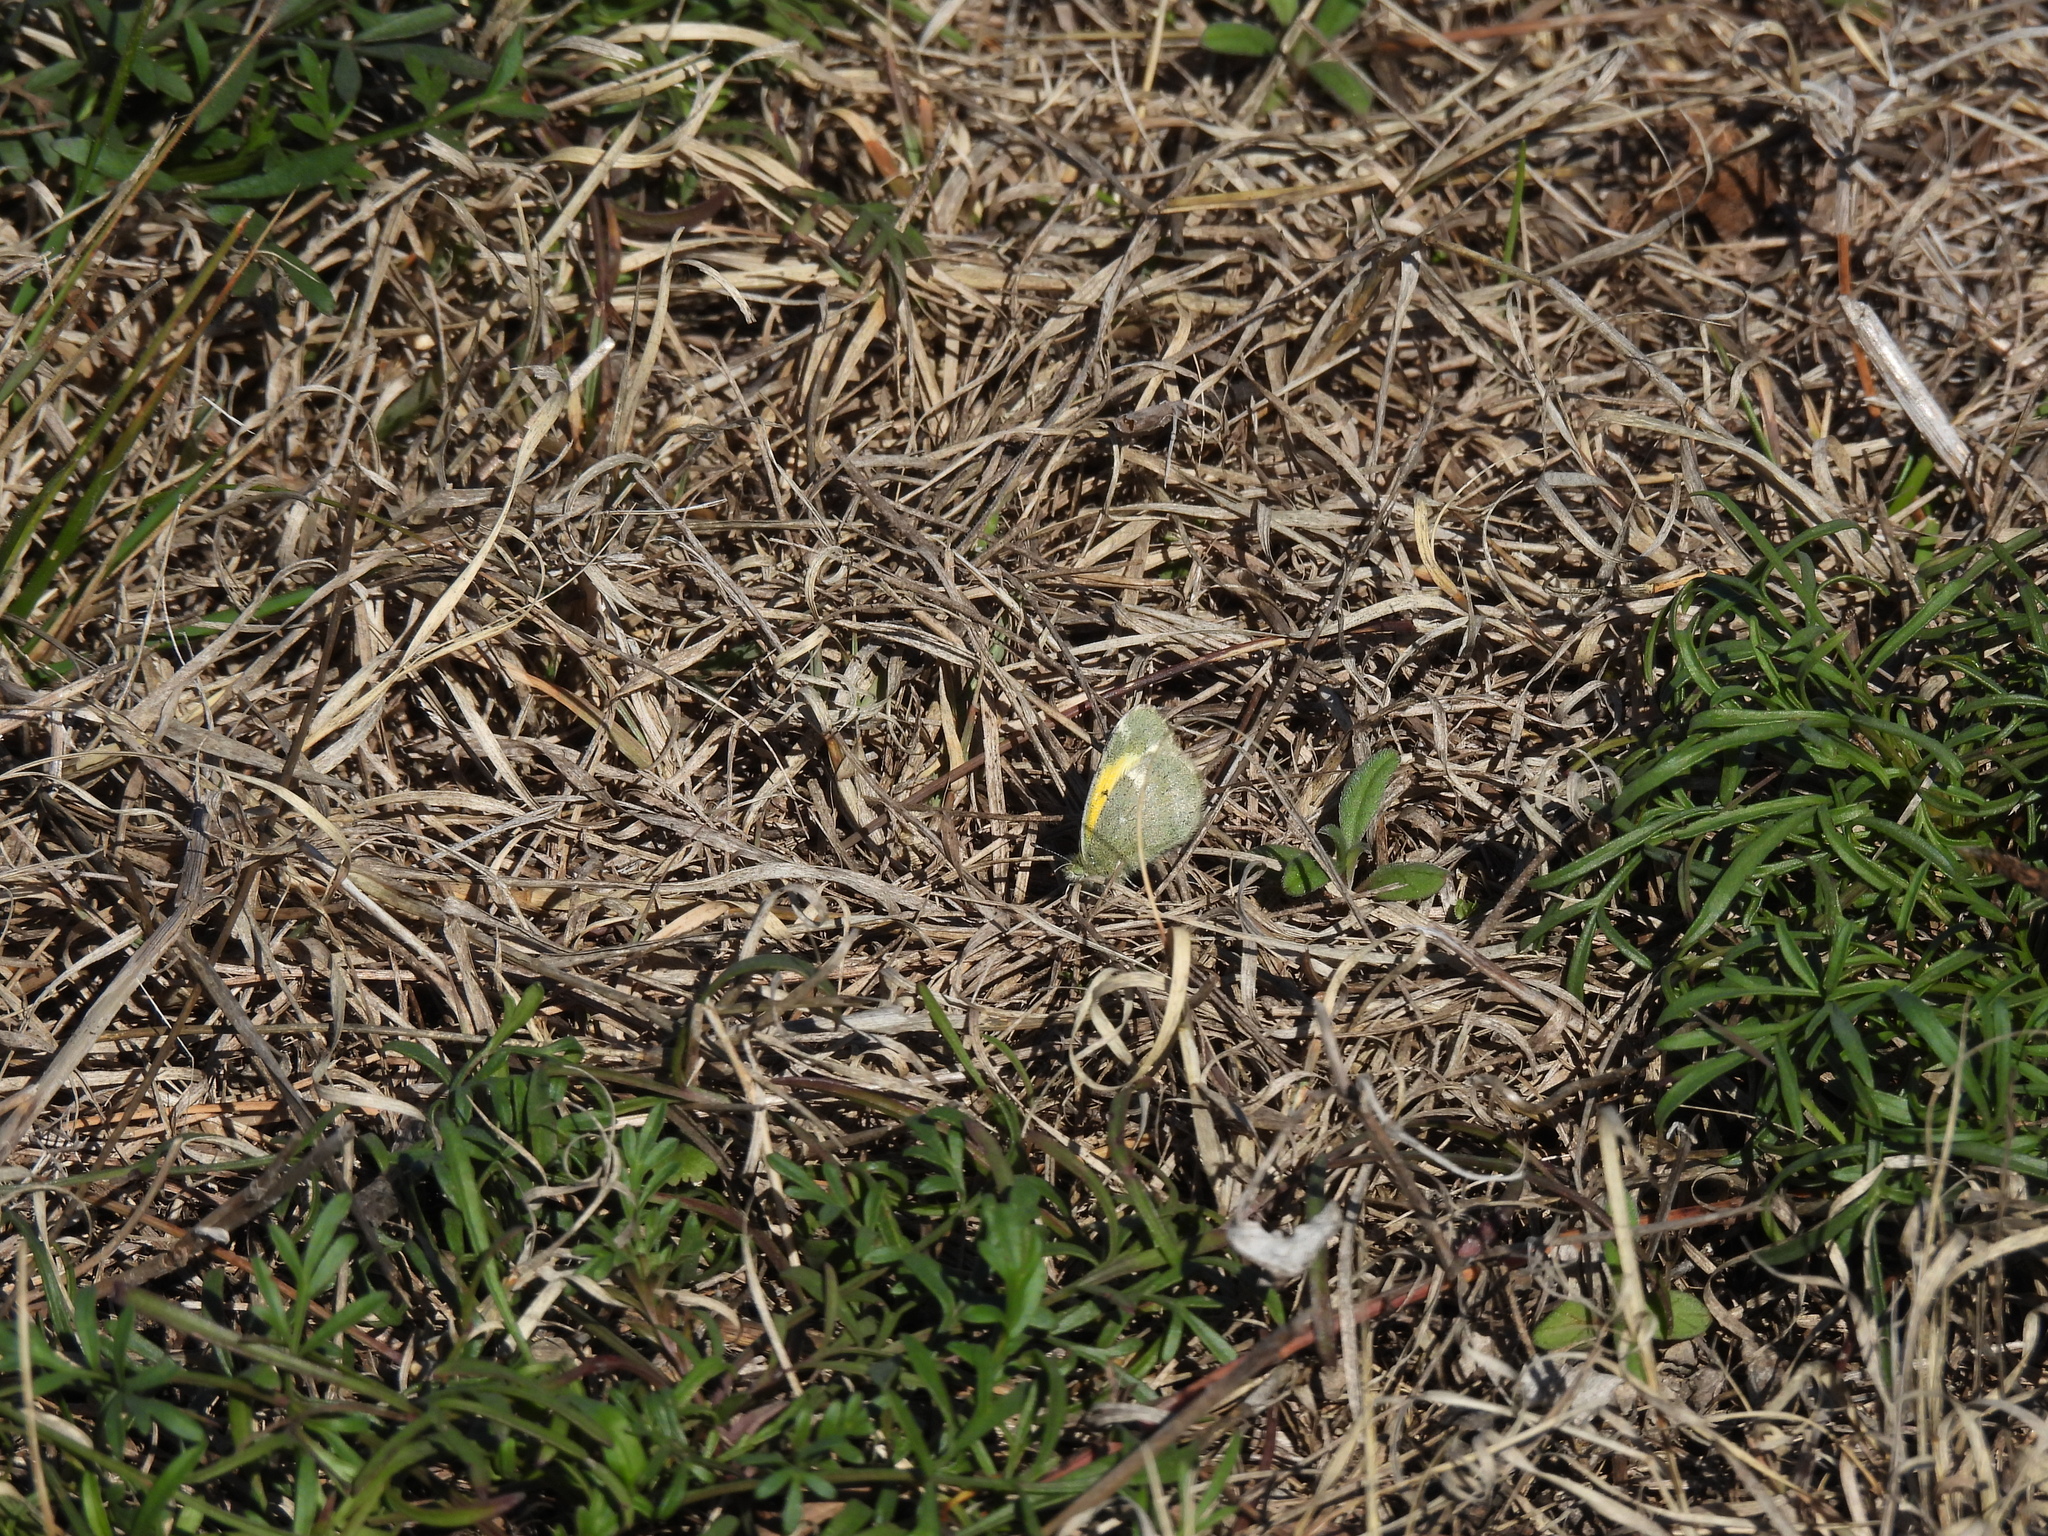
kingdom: Animalia
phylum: Arthropoda
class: Insecta
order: Lepidoptera
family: Pieridae
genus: Nathalis
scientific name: Nathalis iole
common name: Dainty sulphur
